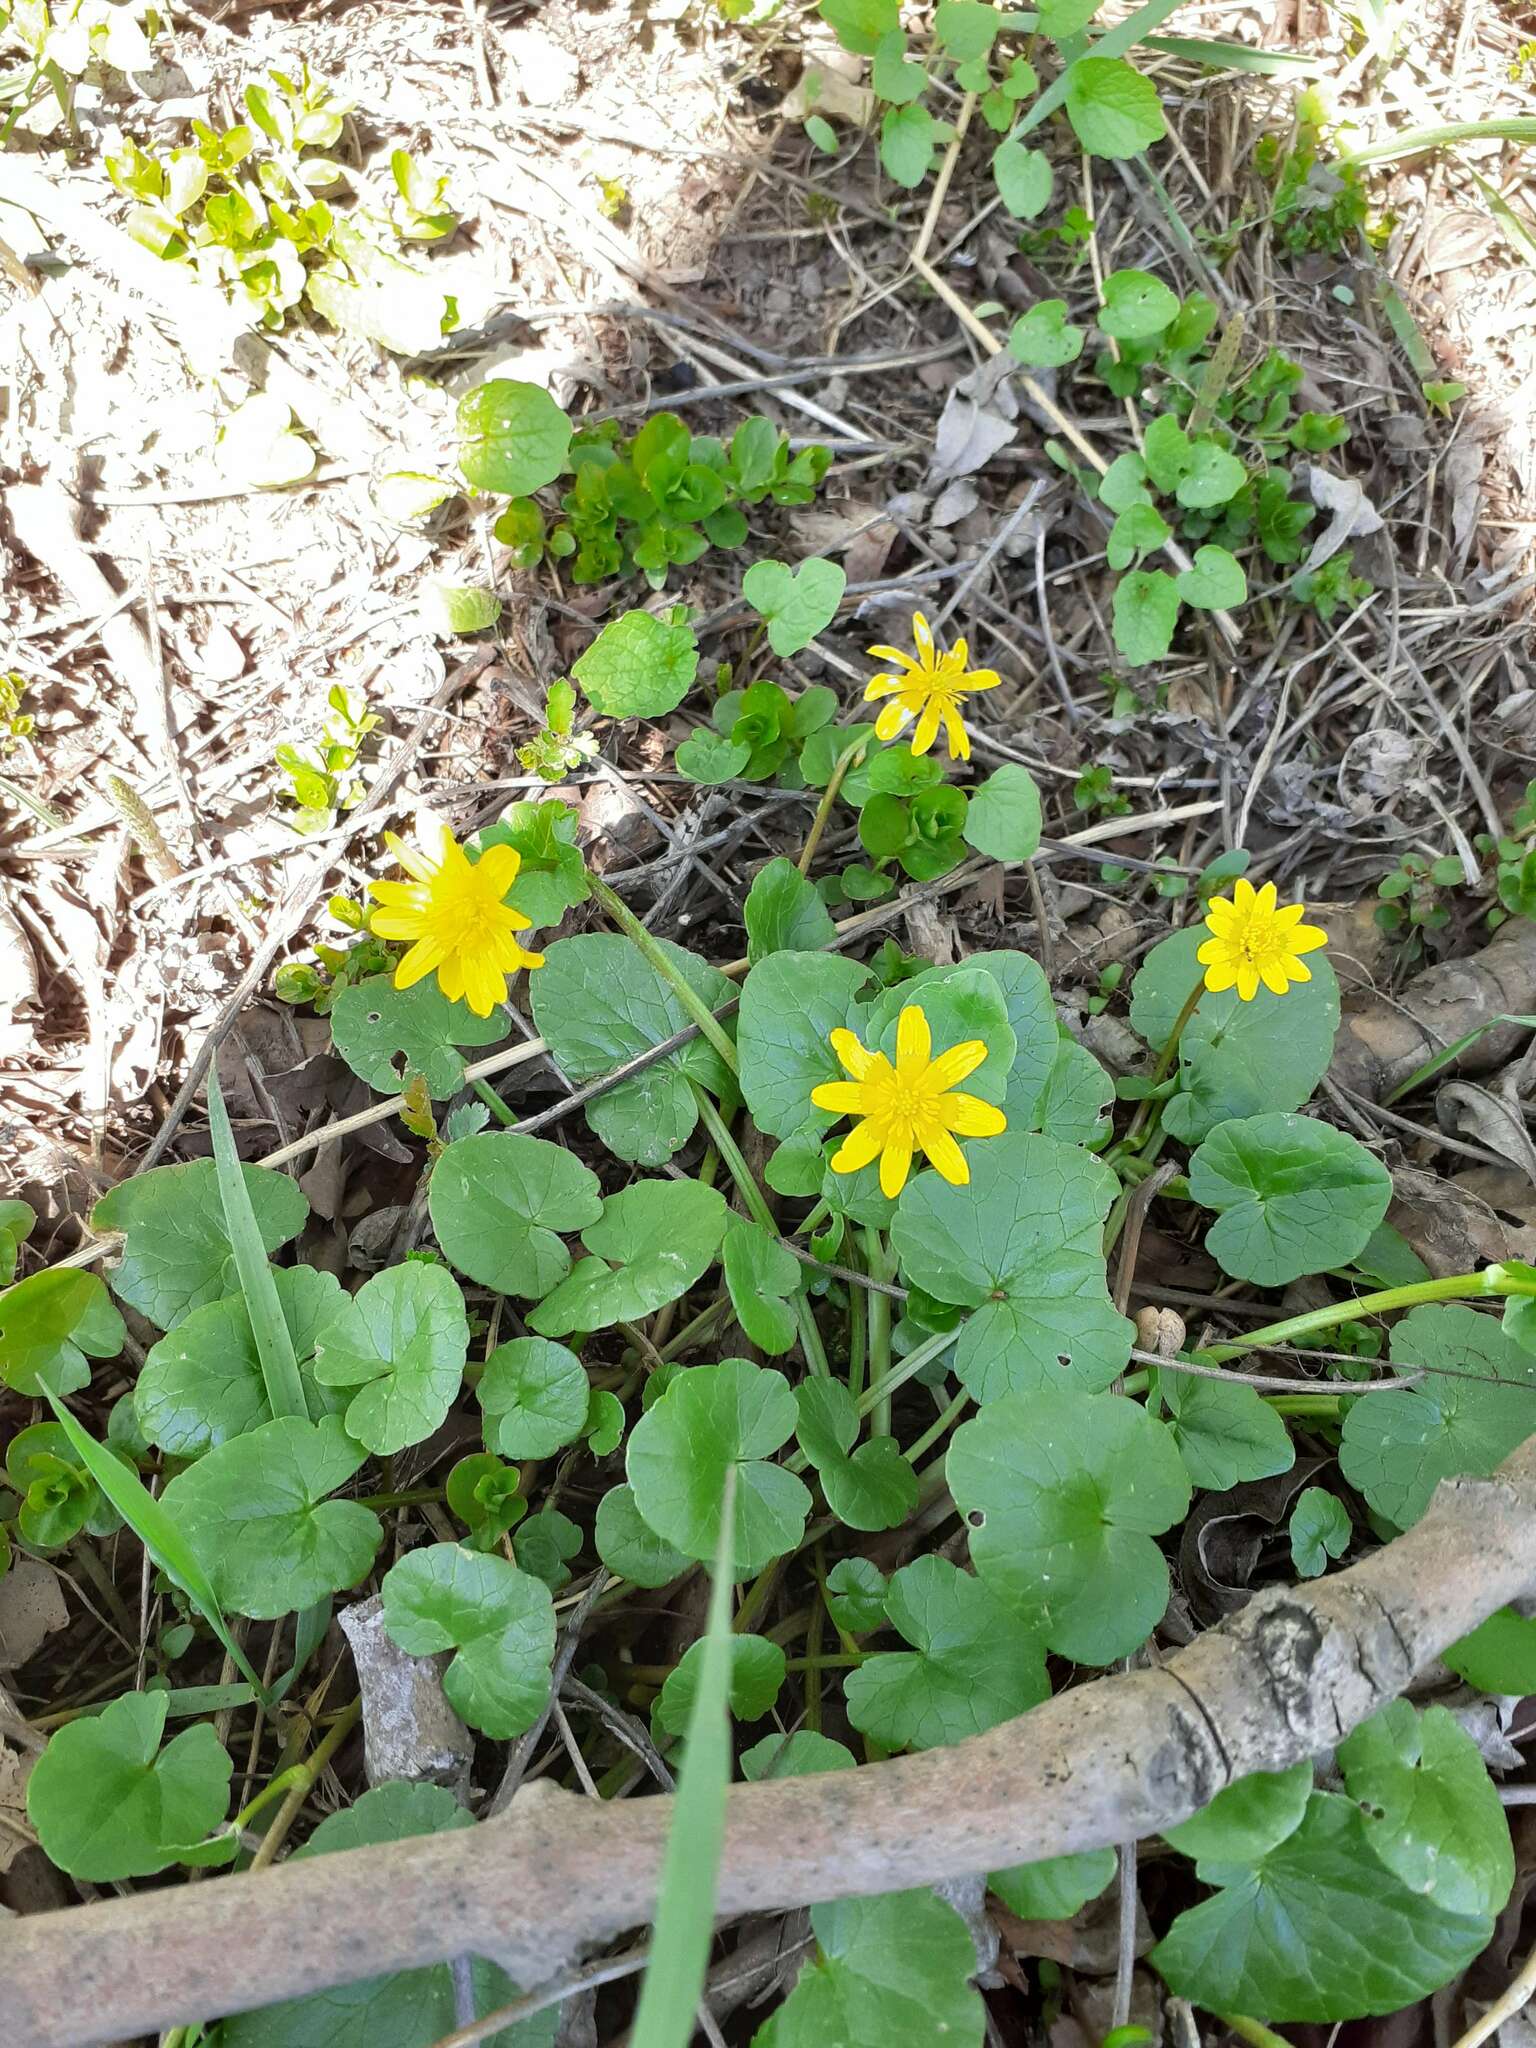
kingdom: Plantae
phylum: Tracheophyta
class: Magnoliopsida
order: Ranunculales
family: Ranunculaceae
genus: Ficaria
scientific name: Ficaria verna
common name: Lesser celandine
